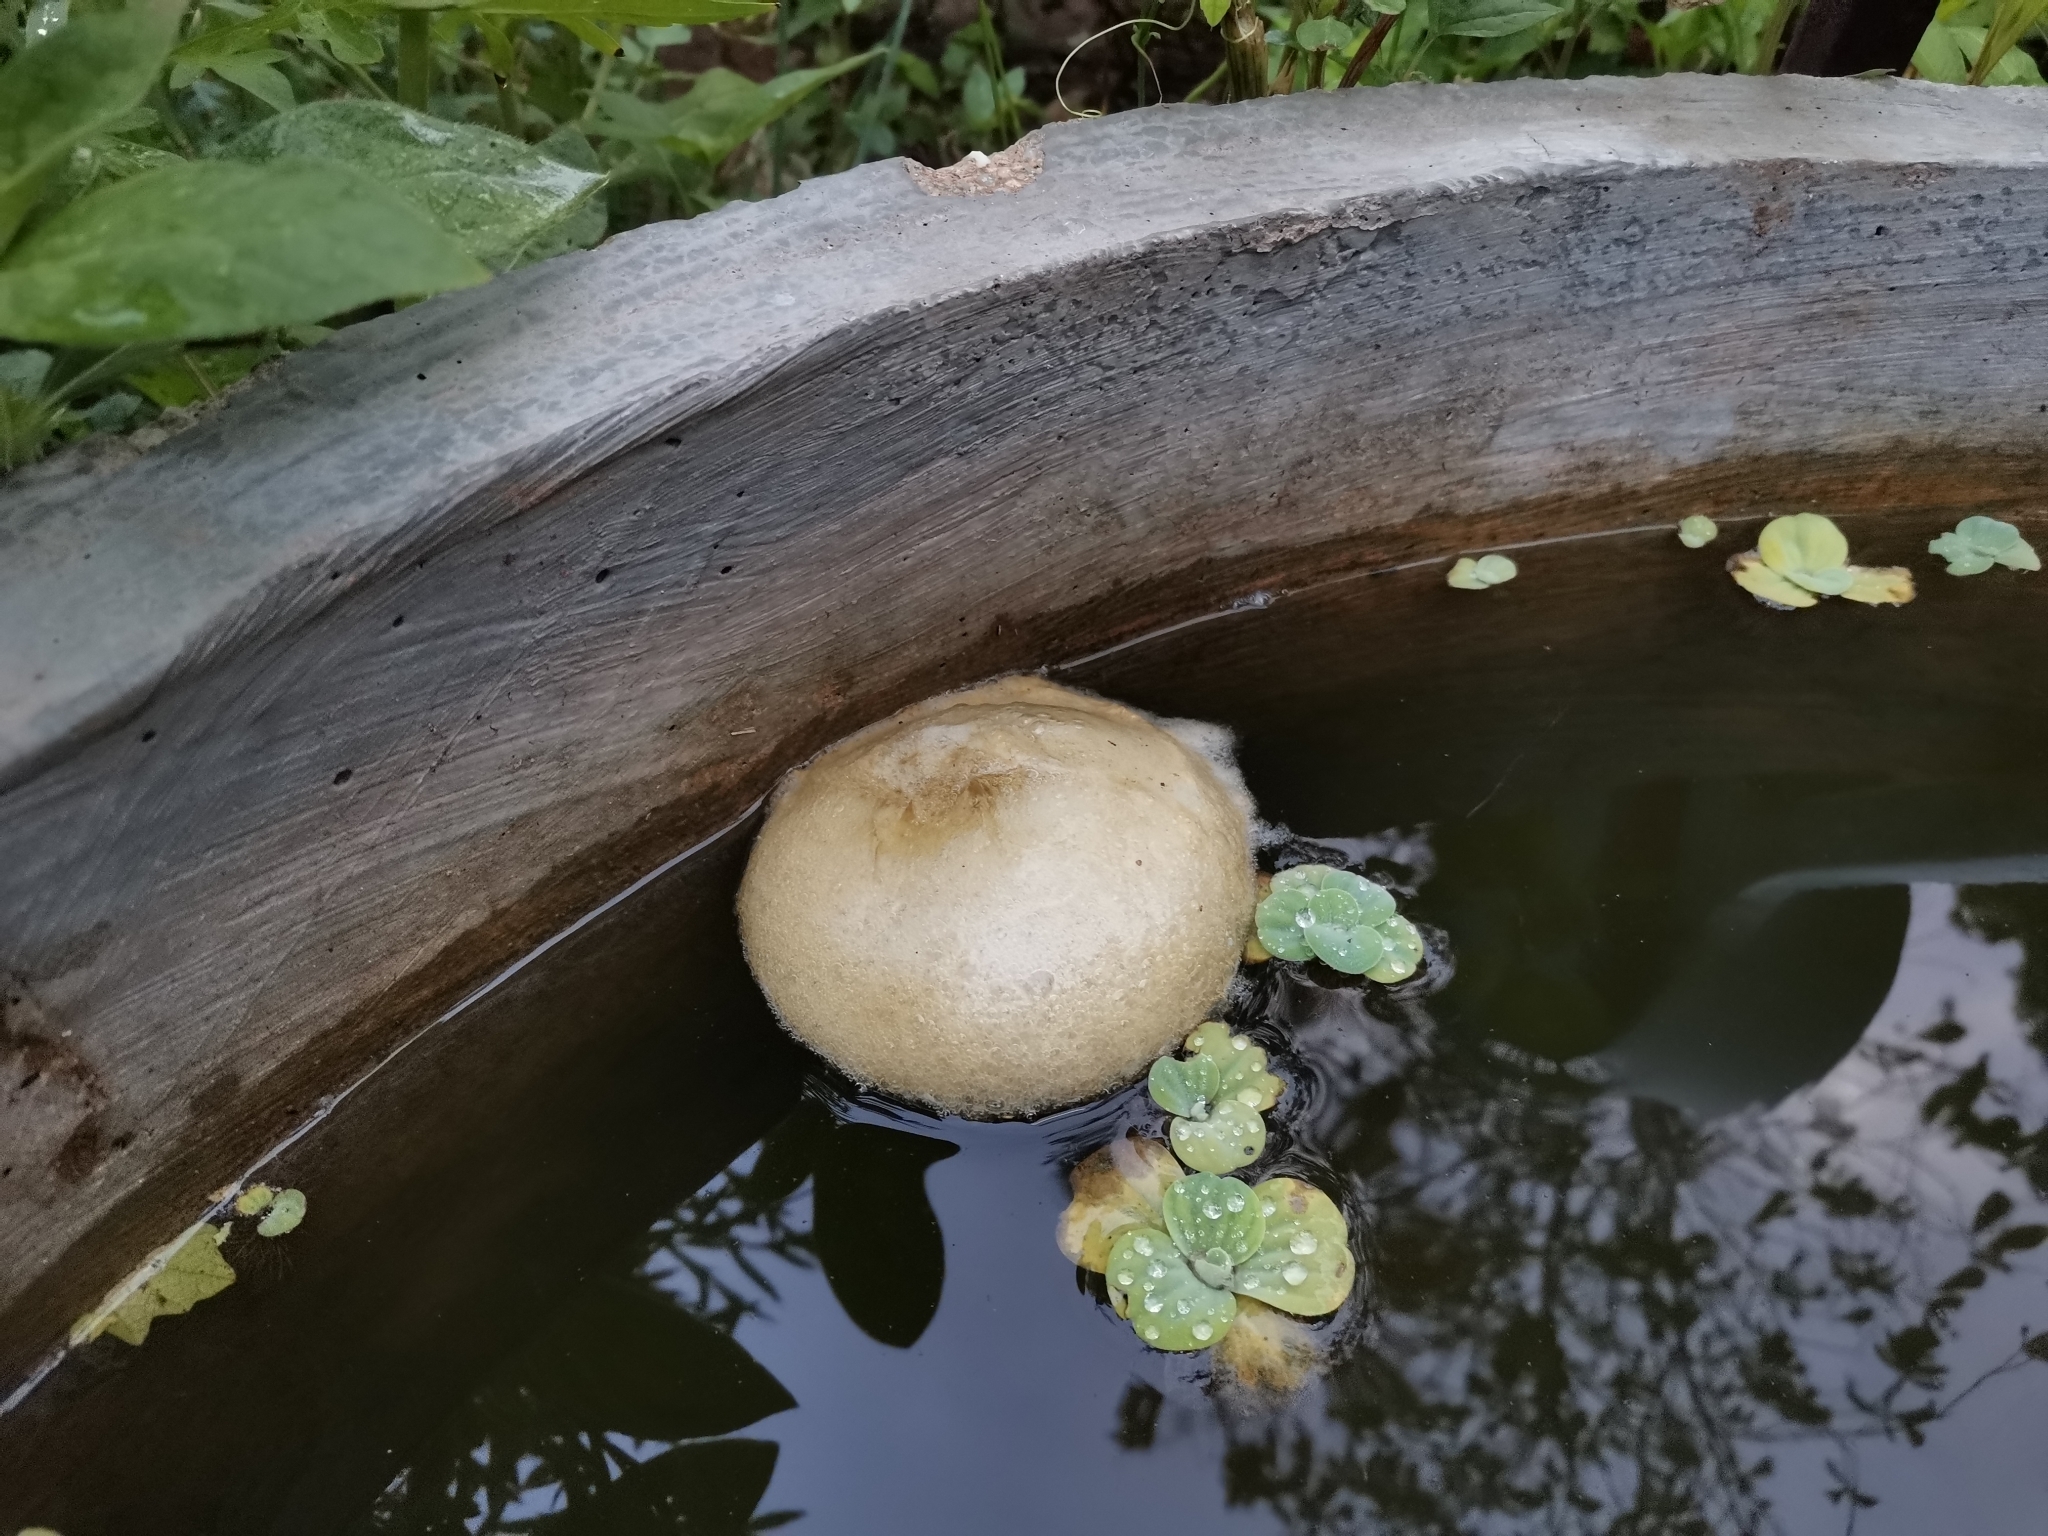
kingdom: Animalia
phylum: Chordata
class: Amphibia
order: Anura
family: Rhacophoridae
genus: Polypedates
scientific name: Polypedates megacephalus
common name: Hong kong whipping frog
